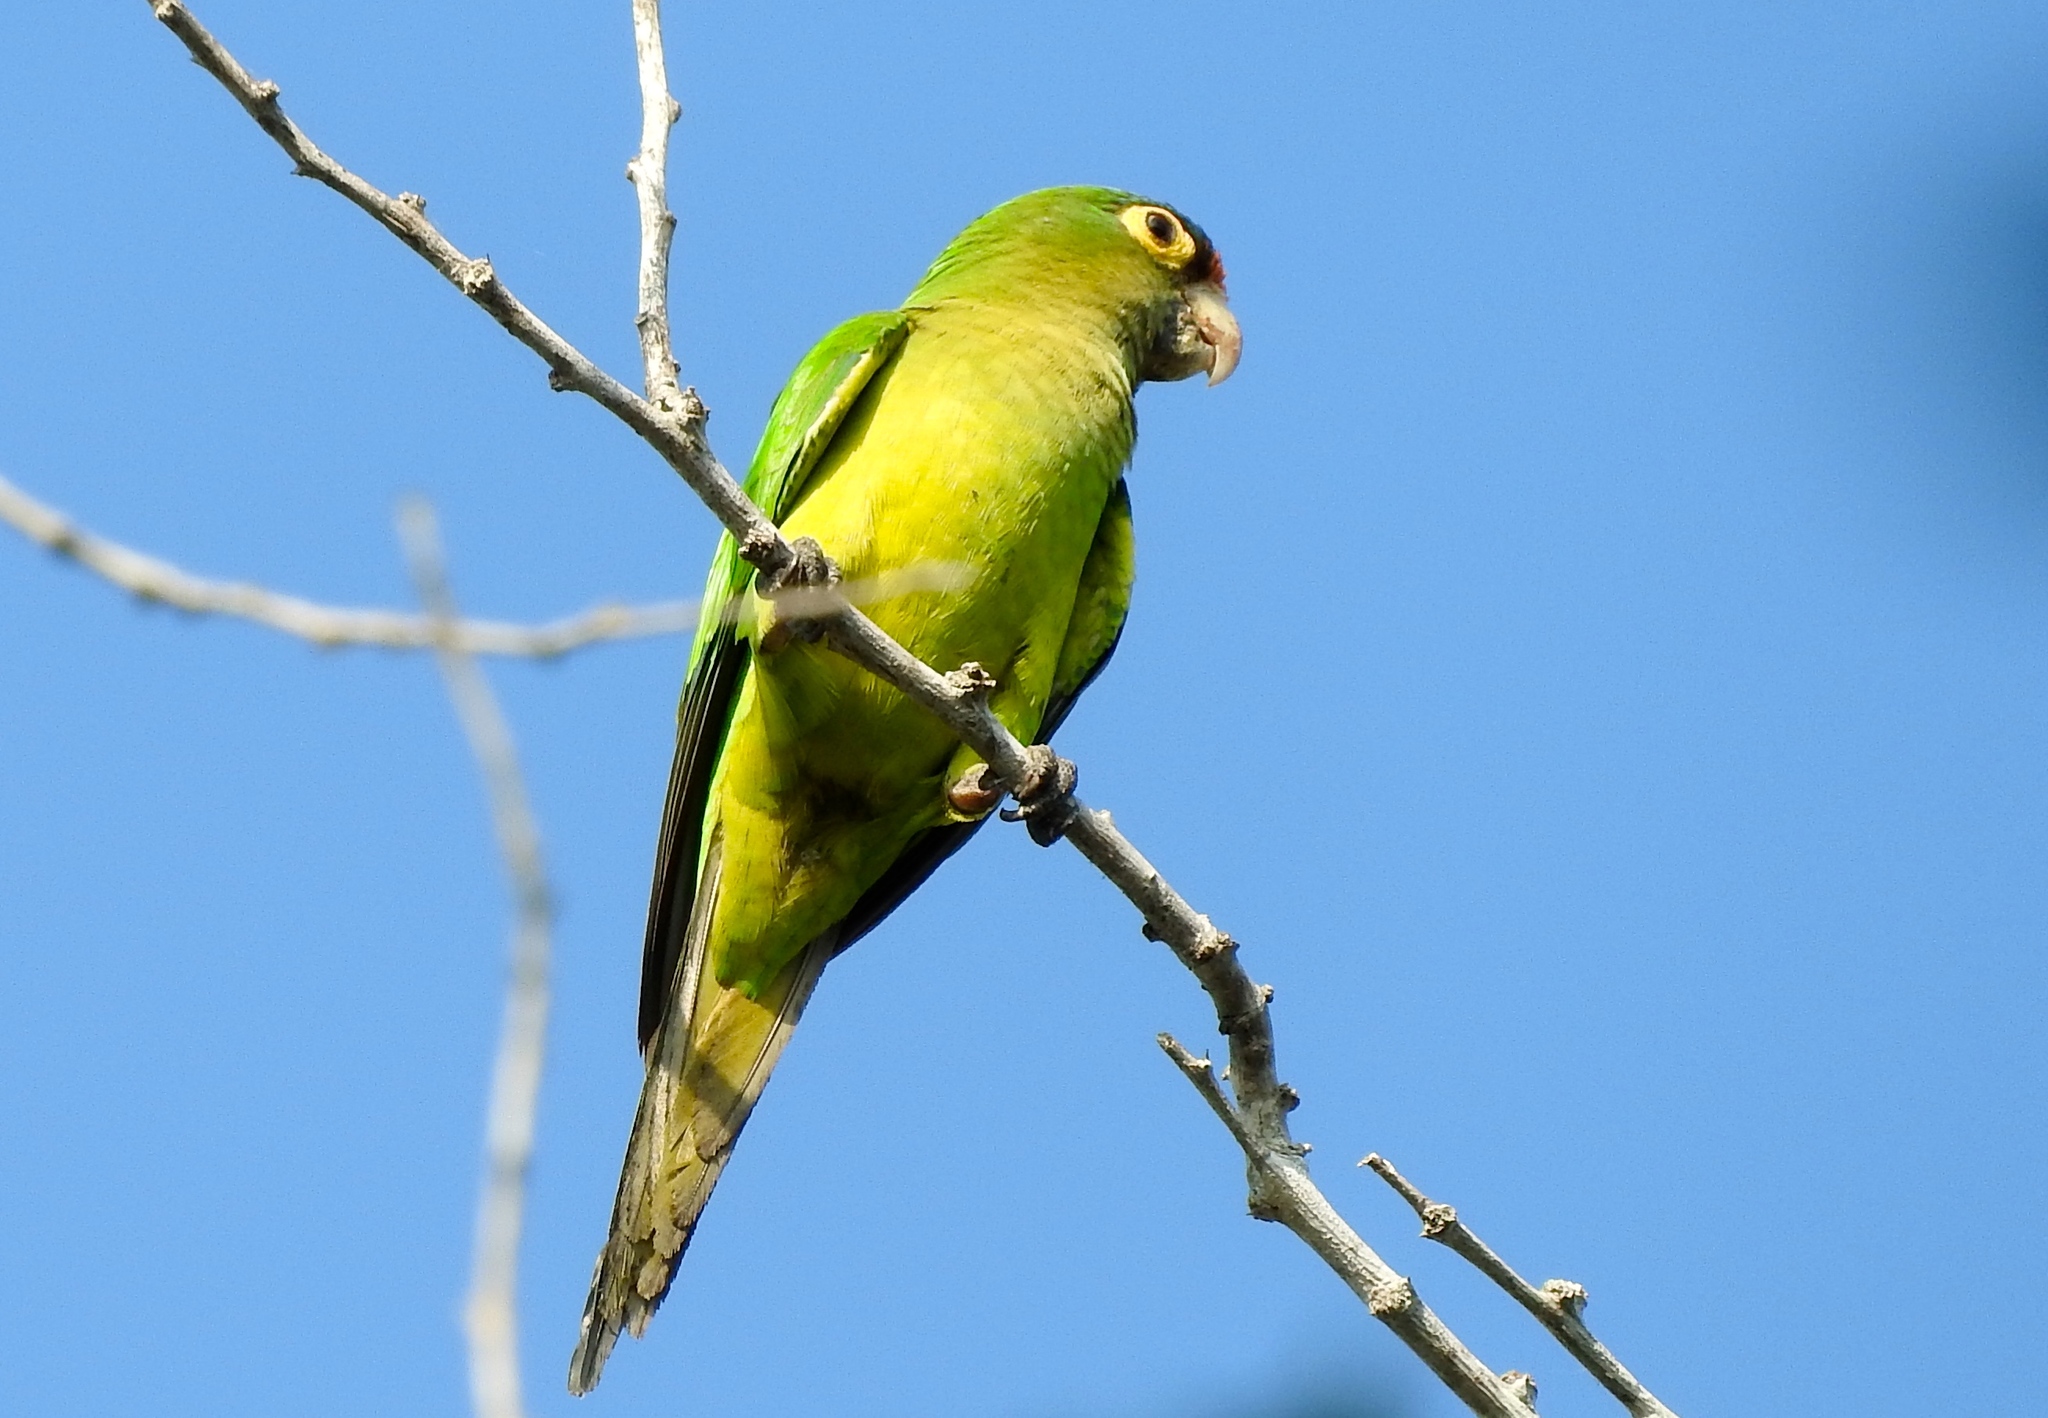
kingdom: Animalia
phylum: Chordata
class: Aves
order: Psittaciformes
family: Psittacidae
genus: Aratinga
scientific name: Aratinga canicularis
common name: Orange-fronted parakeet
